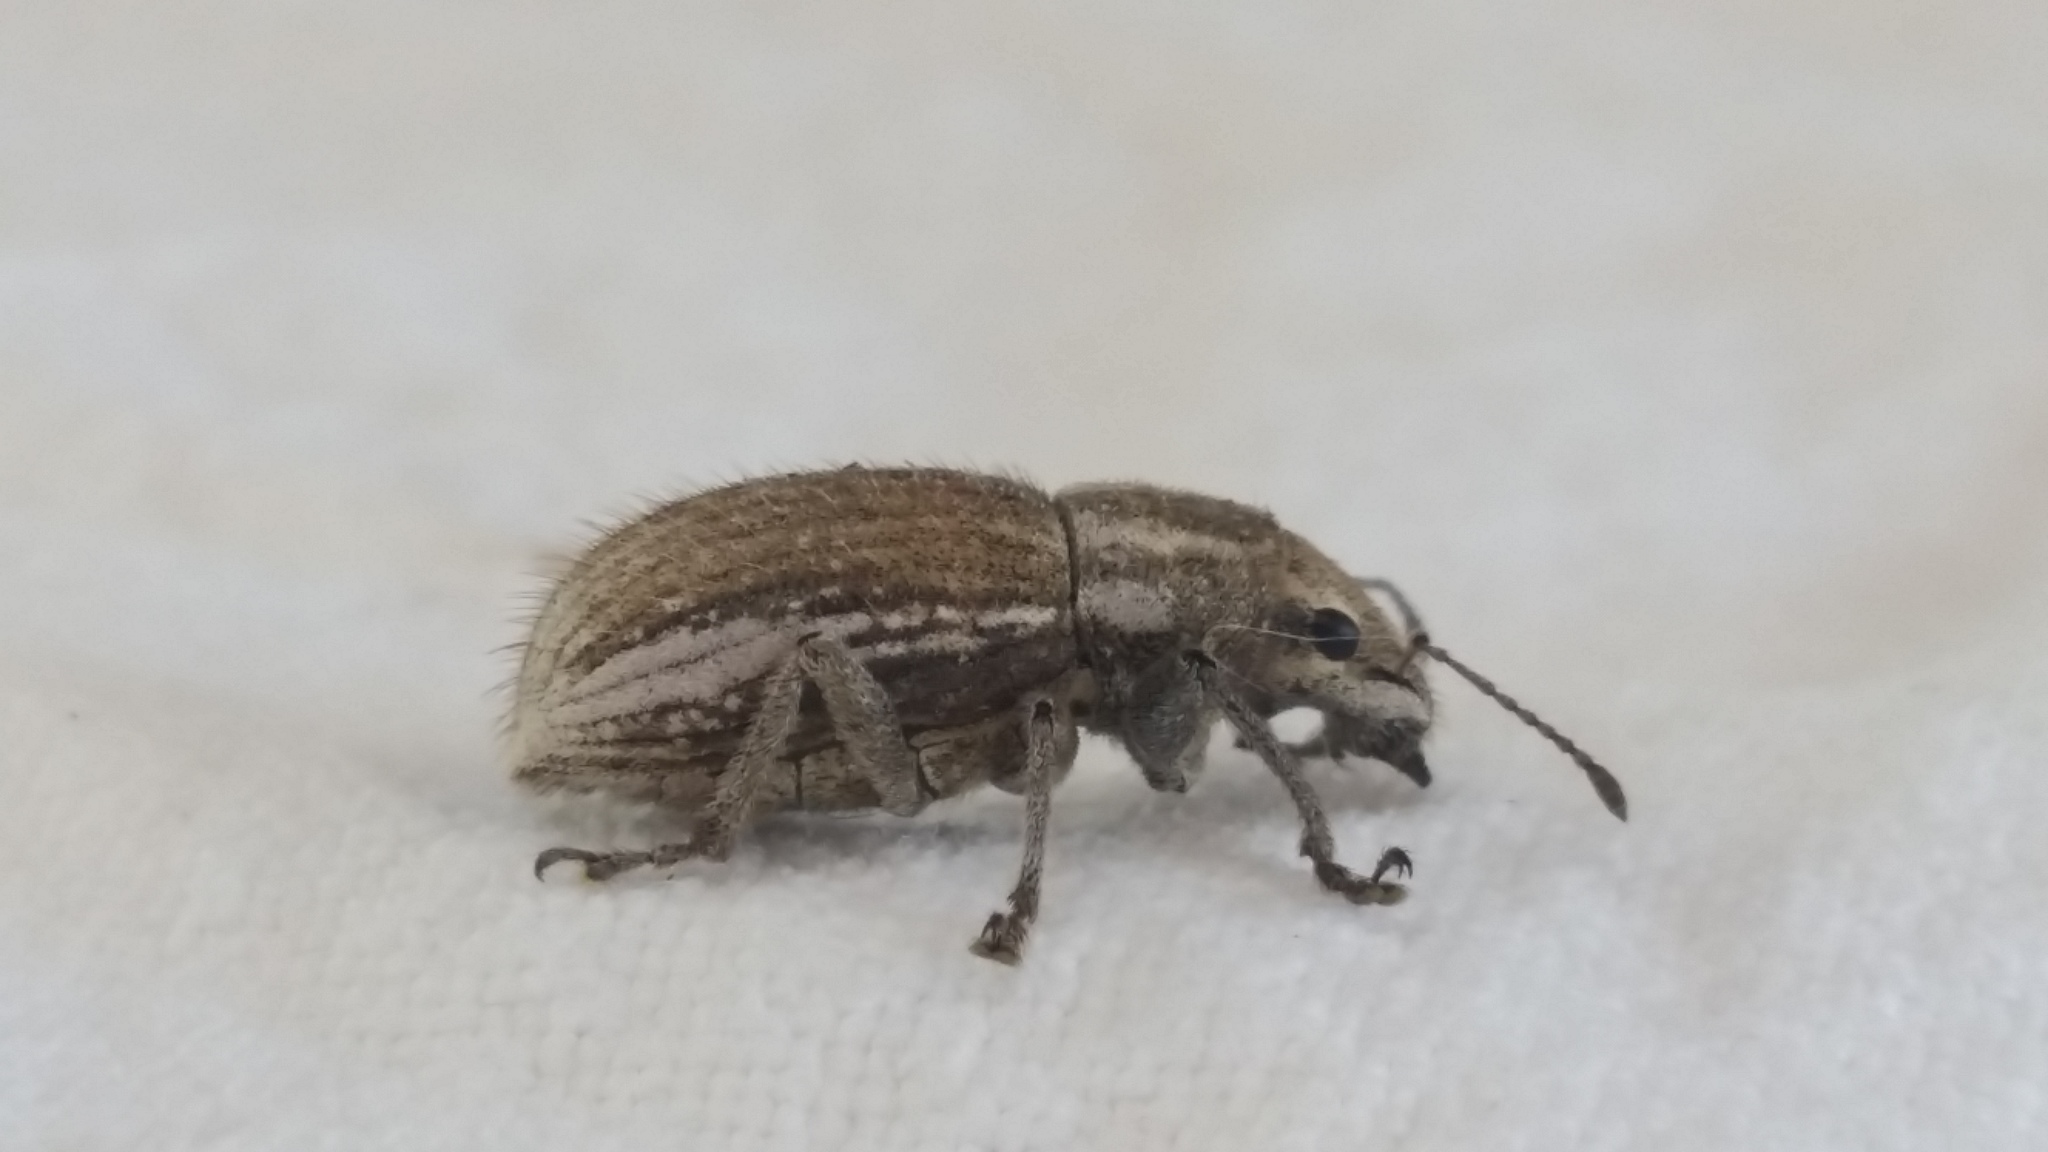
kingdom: Animalia
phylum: Arthropoda
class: Insecta
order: Coleoptera
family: Curculionidae
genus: Naupactus
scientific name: Naupactus leucoloma
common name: Whitefringed beetle
